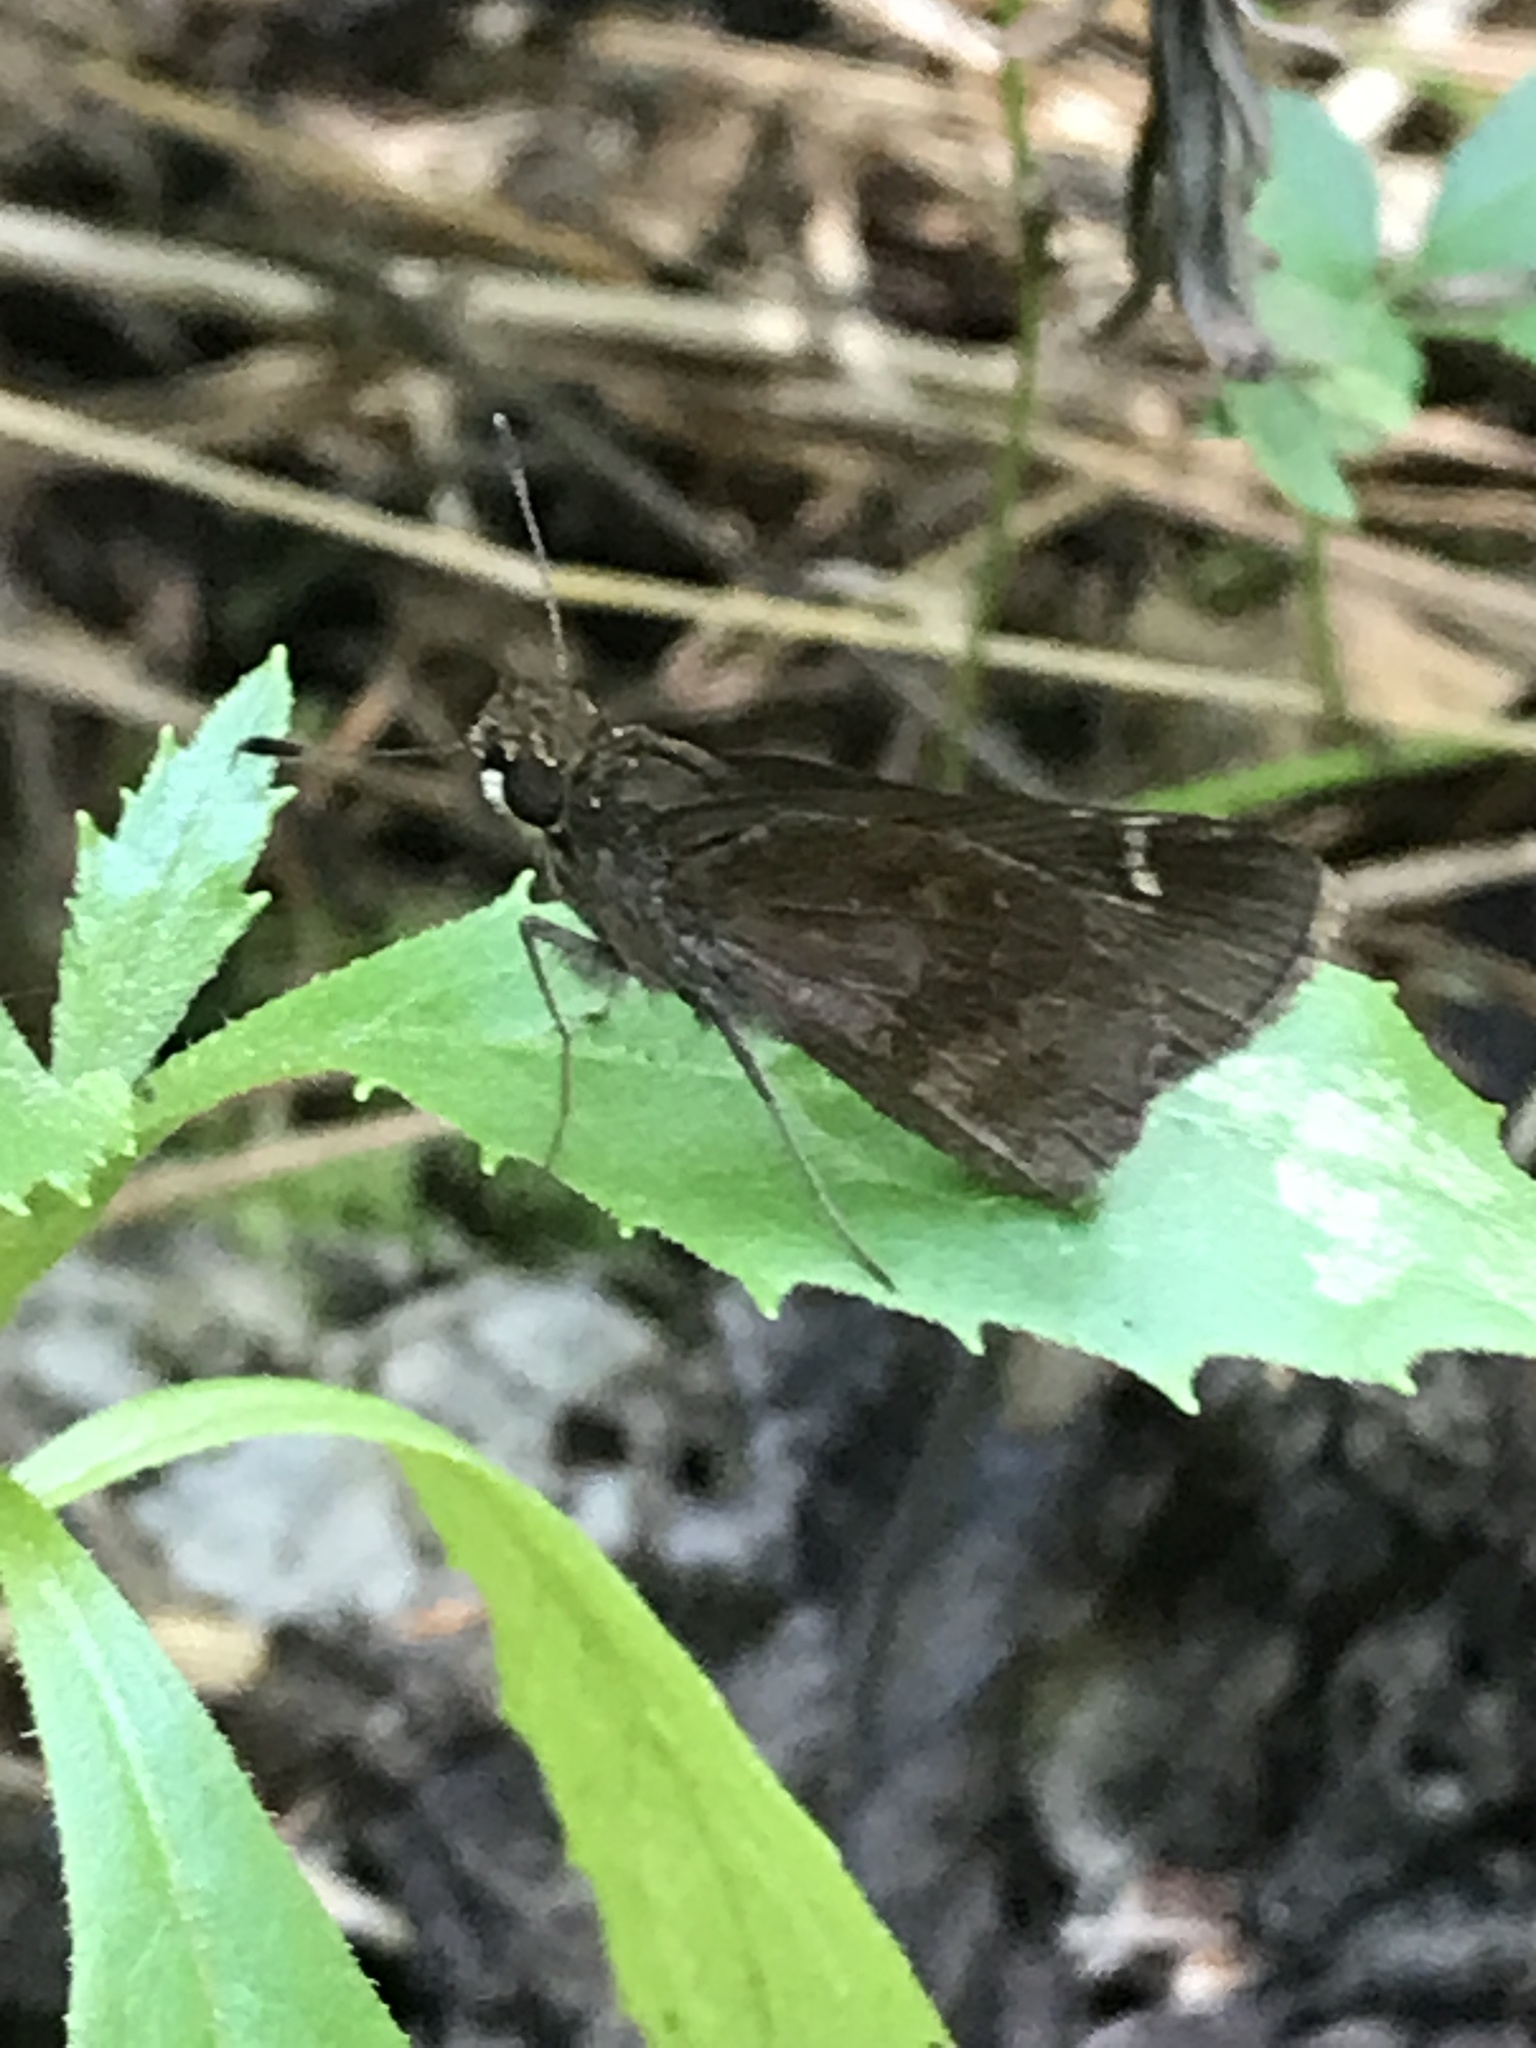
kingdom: Animalia
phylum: Arthropoda
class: Insecta
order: Lepidoptera
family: Hesperiidae
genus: Lerema
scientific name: Lerema accius
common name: Clouded skipper
